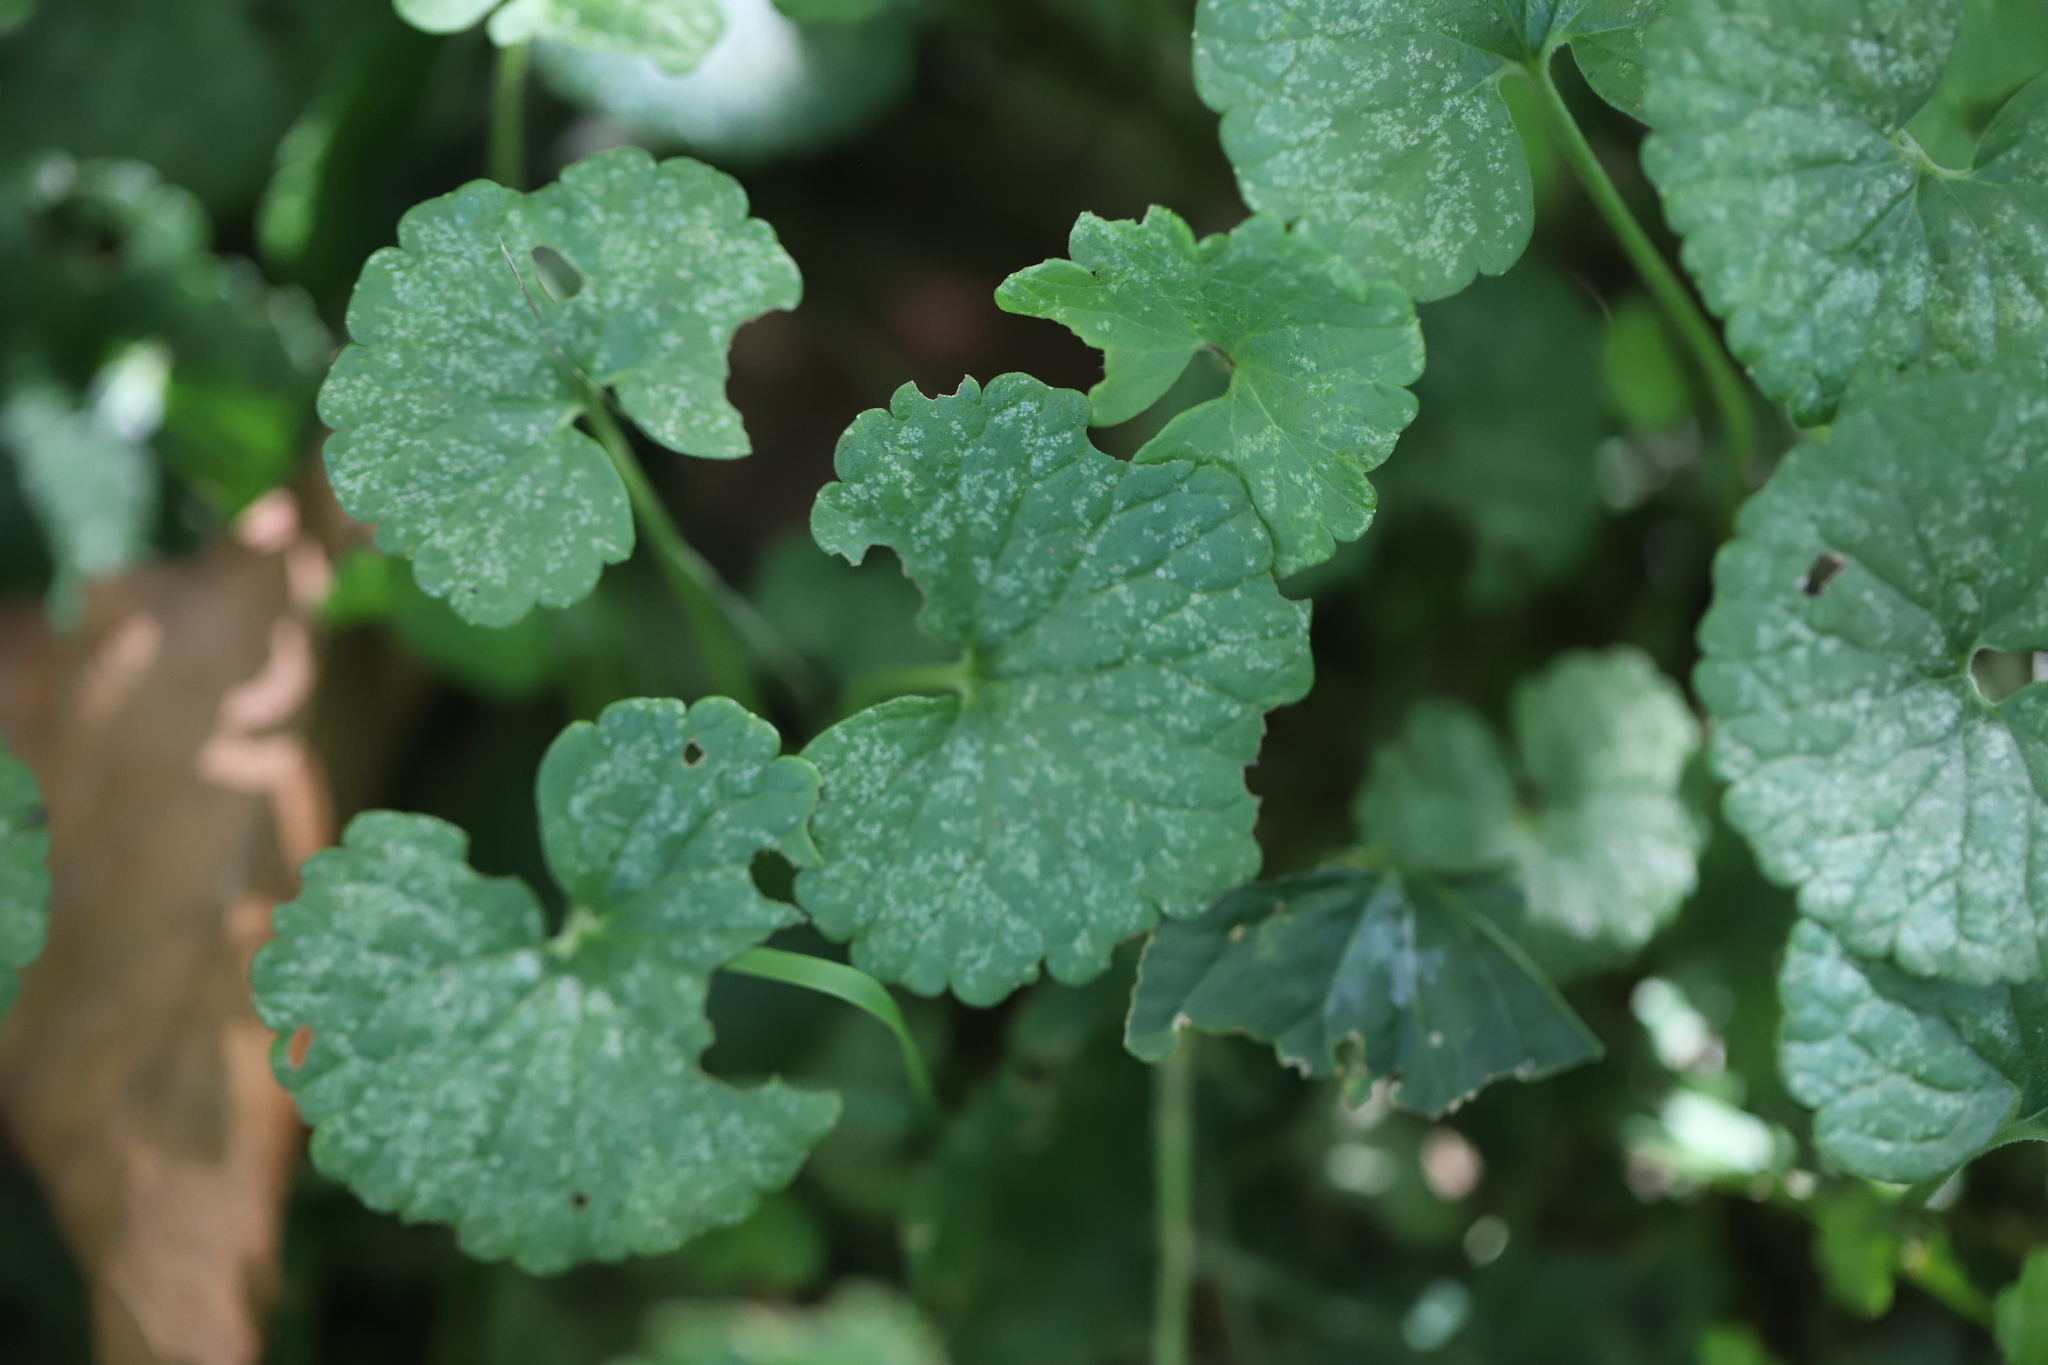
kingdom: Plantae
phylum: Tracheophyta
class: Magnoliopsida
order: Lamiales
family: Lamiaceae
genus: Glechoma
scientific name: Glechoma hederacea
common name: Ground ivy
